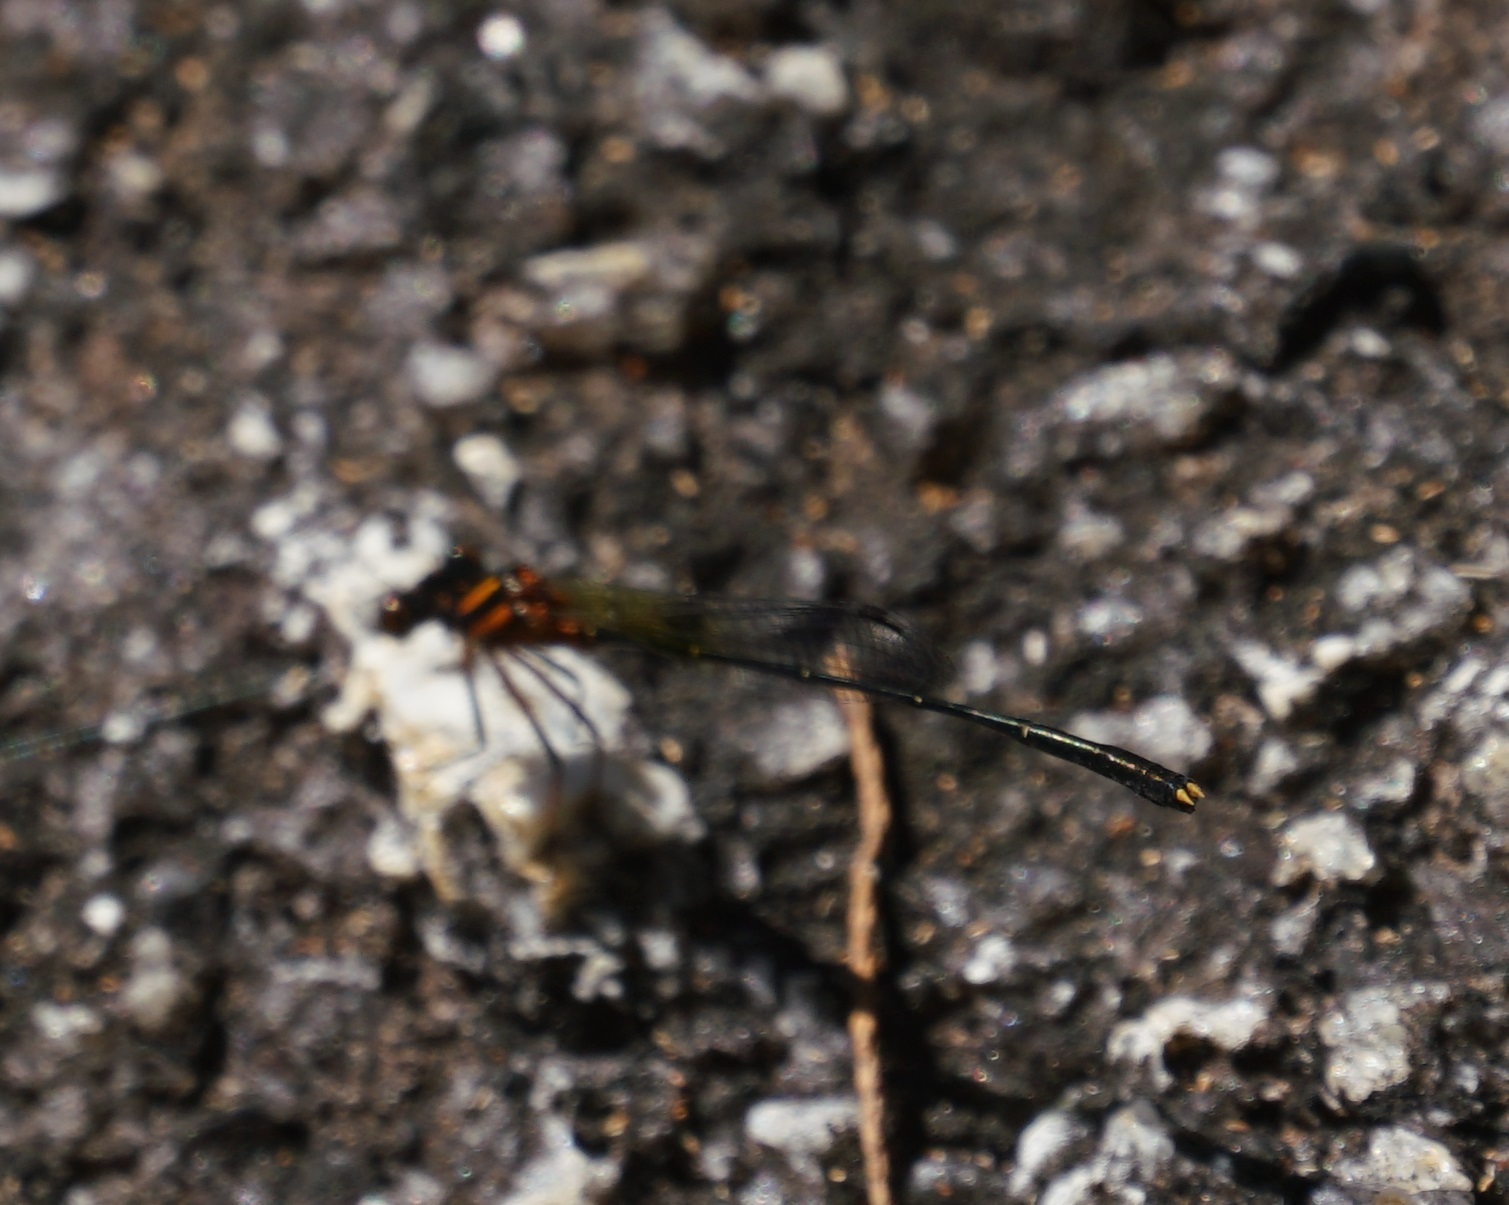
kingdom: Animalia
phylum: Arthropoda
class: Insecta
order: Odonata
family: Platycnemididae
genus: Nososticta
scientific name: Nososticta solida
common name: Orange threadtail
